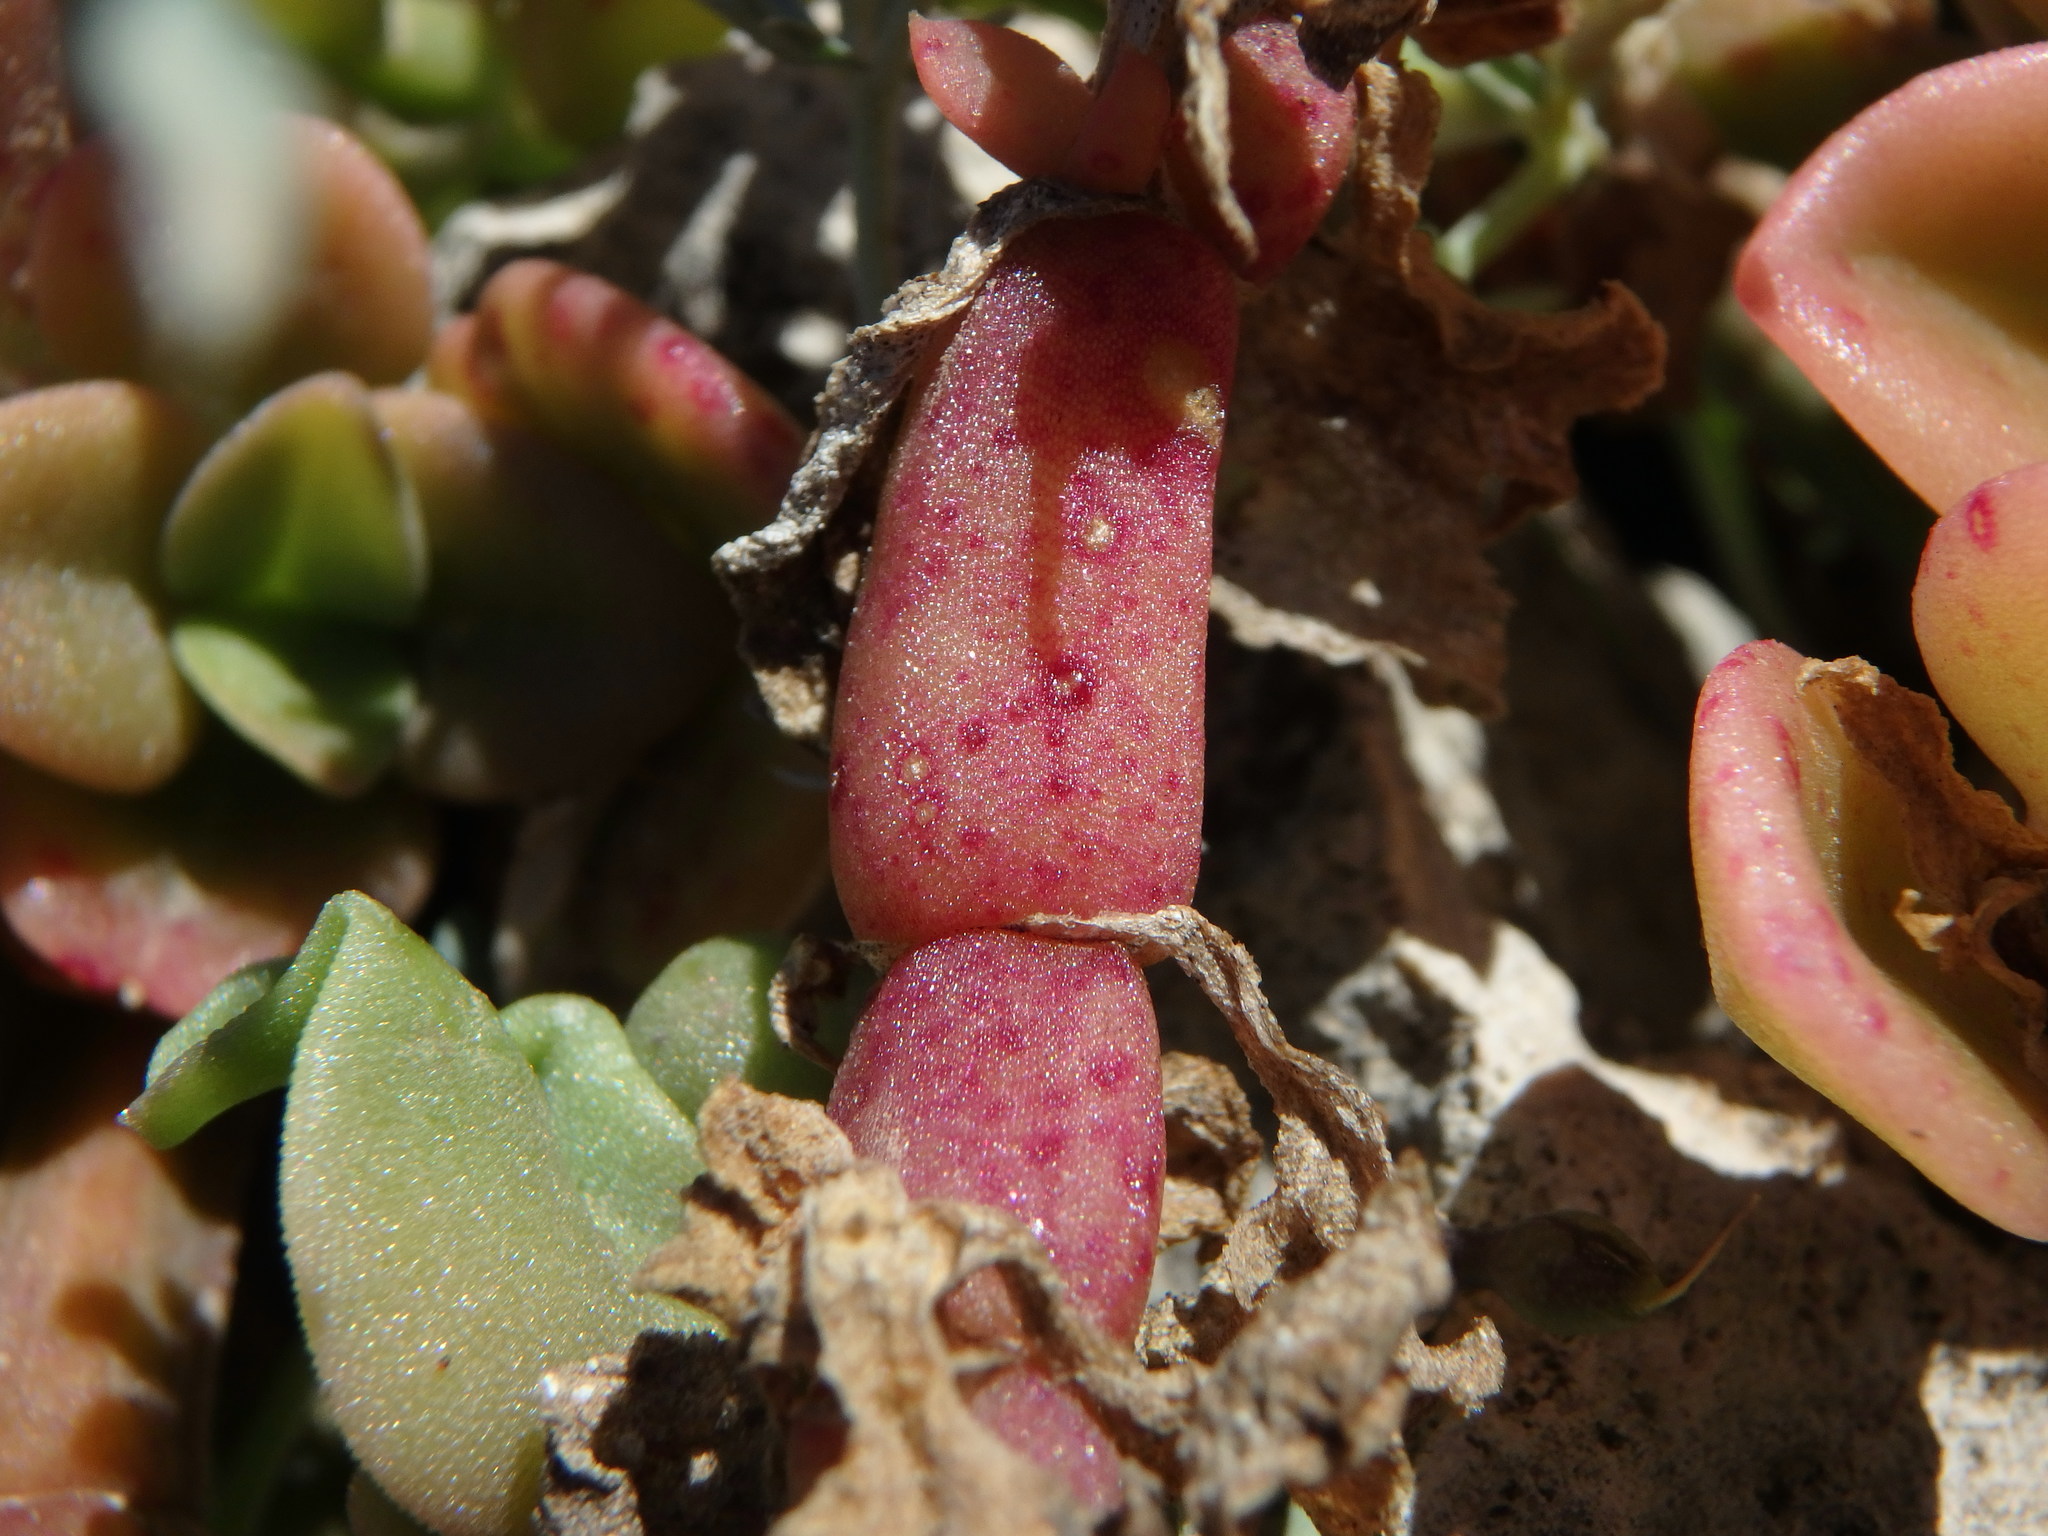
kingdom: Plantae
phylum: Tracheophyta
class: Magnoliopsida
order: Caryophyllales
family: Aizoaceae
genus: Mesembryanthemum
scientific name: Mesembryanthemum cordifolium
